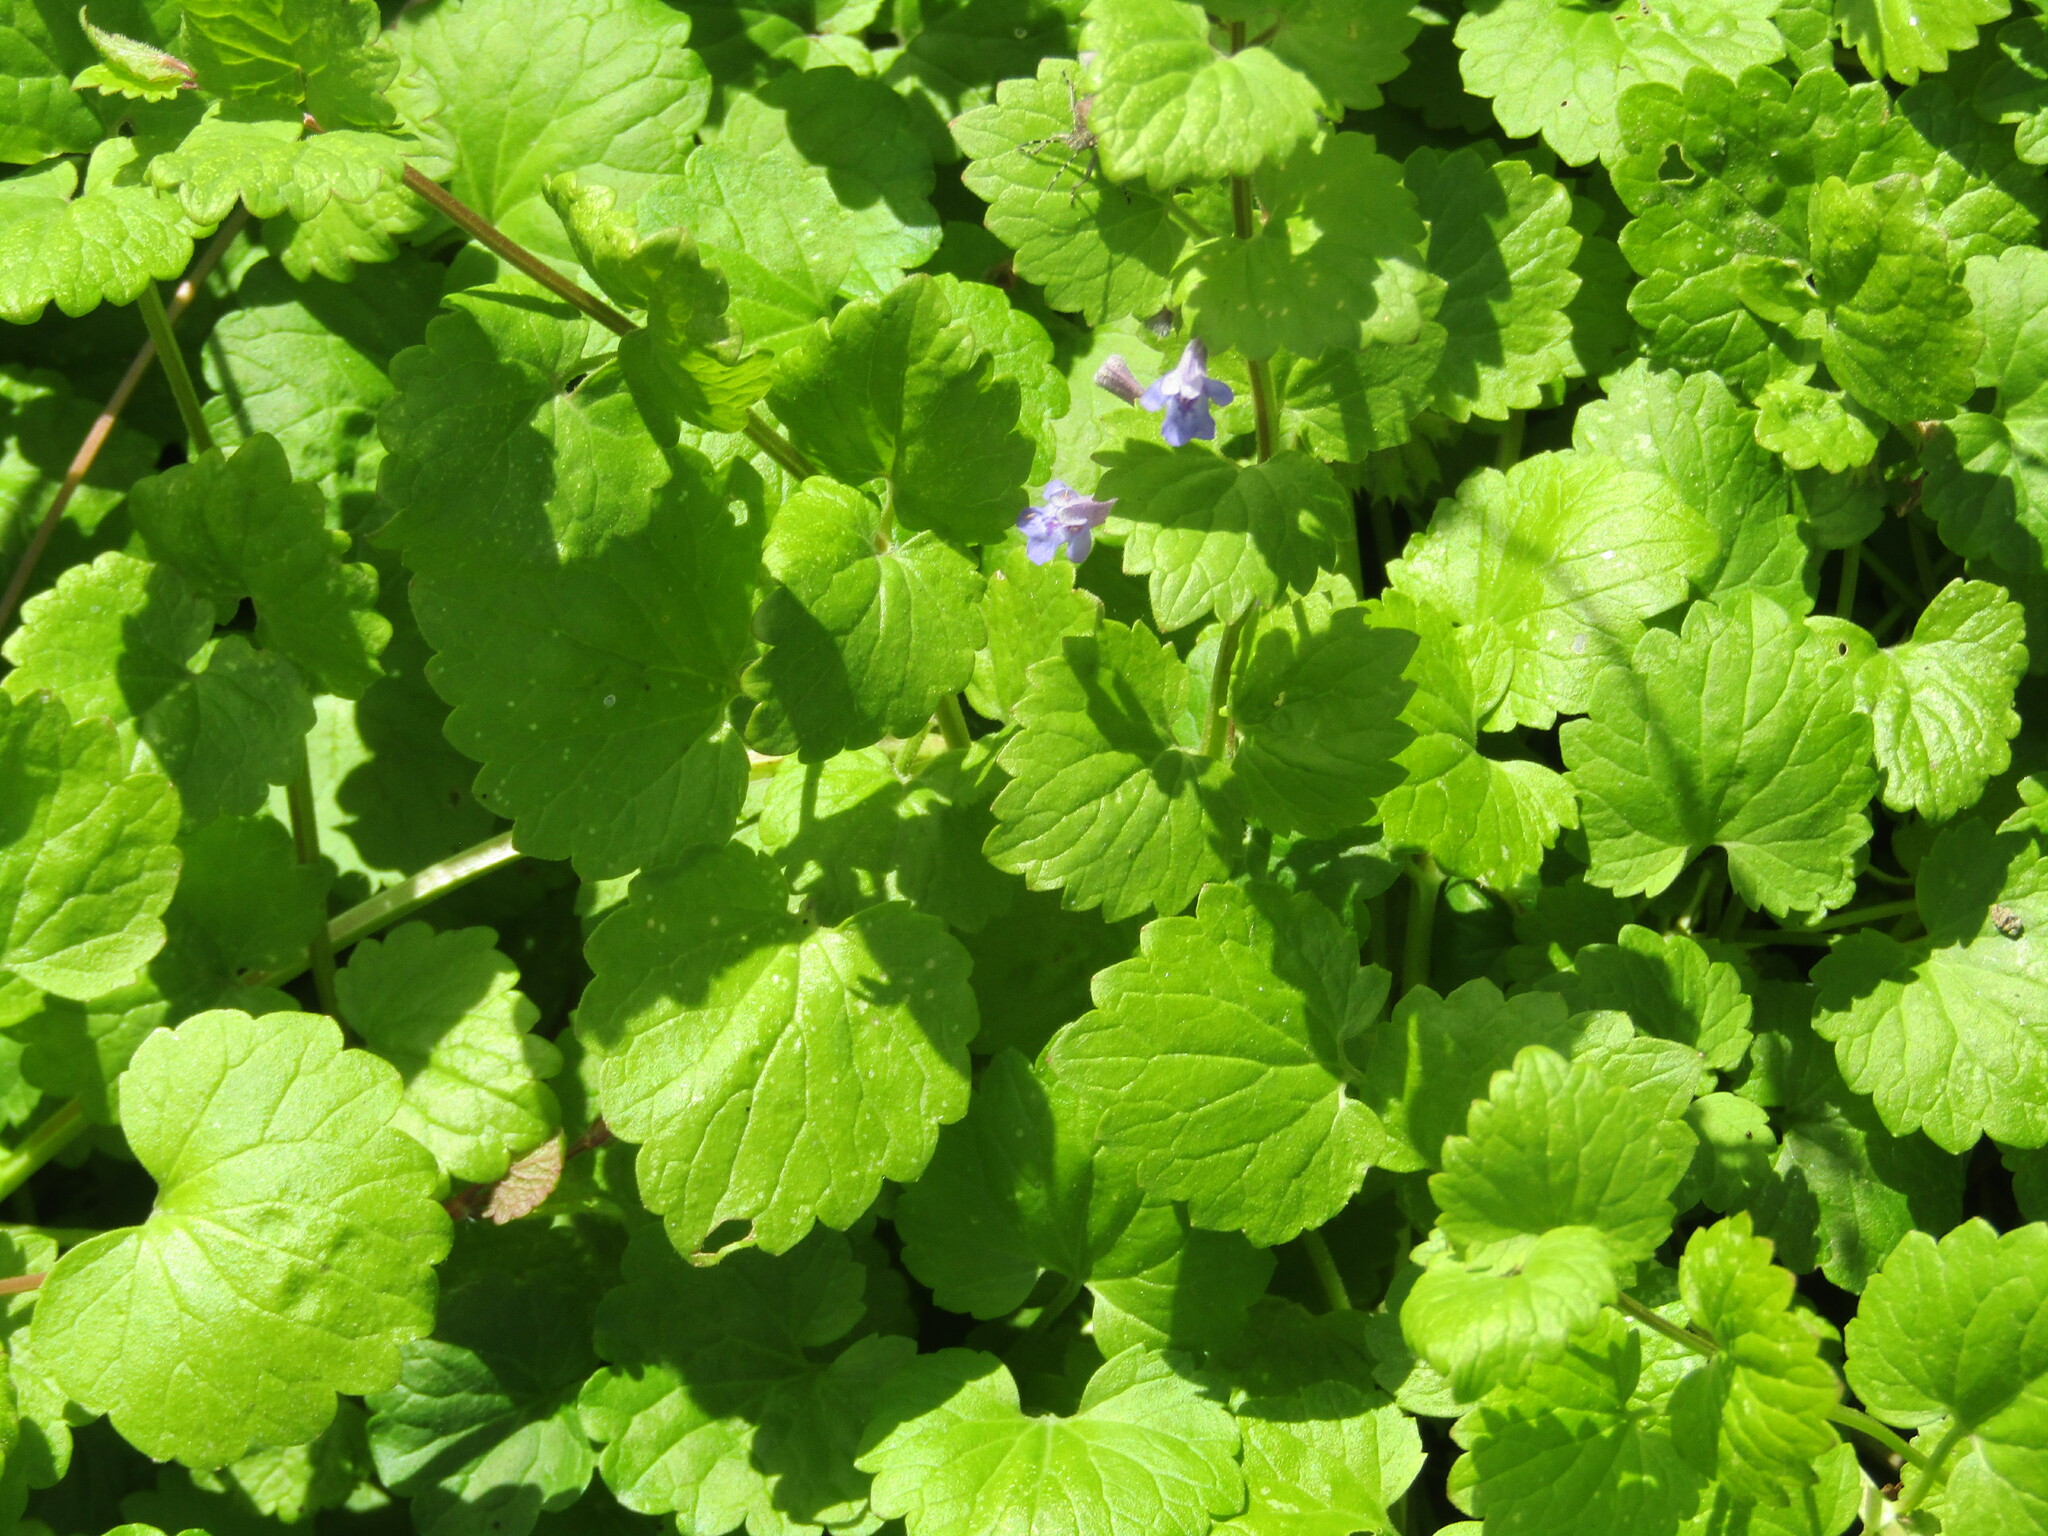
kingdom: Plantae
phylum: Tracheophyta
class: Magnoliopsida
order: Lamiales
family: Lamiaceae
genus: Glechoma
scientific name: Glechoma hederacea
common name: Ground ivy
